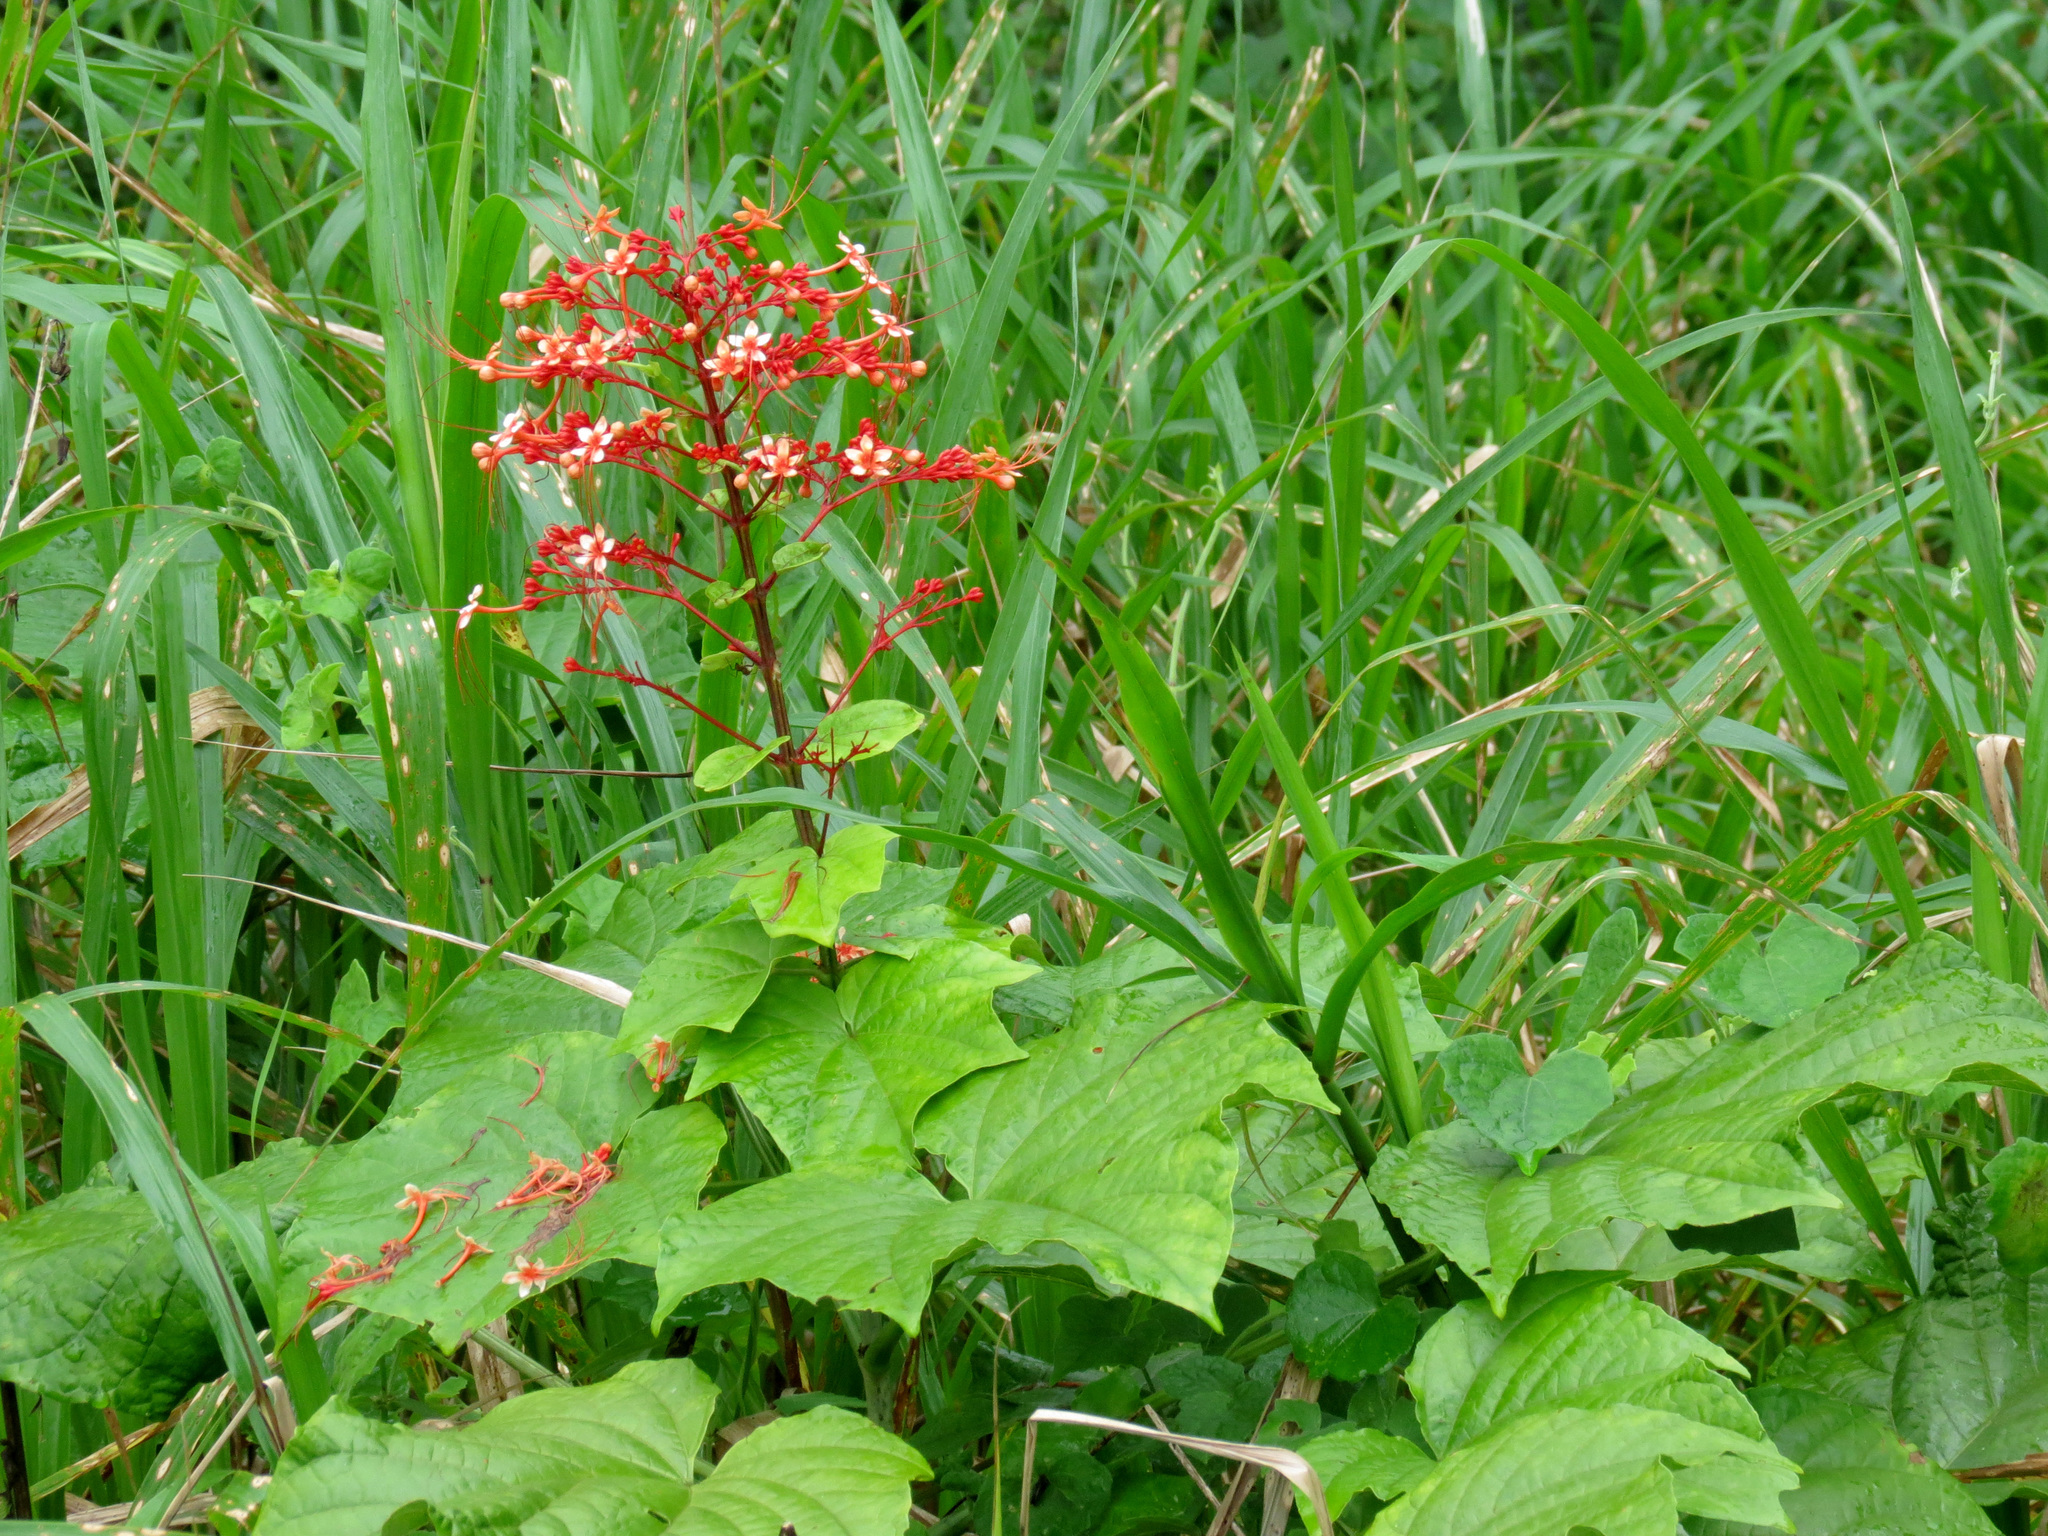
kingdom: Plantae
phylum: Tracheophyta
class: Magnoliopsida
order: Lamiales
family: Lamiaceae
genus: Clerodendrum
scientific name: Clerodendrum paniculatum
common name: Pagoda-flower
